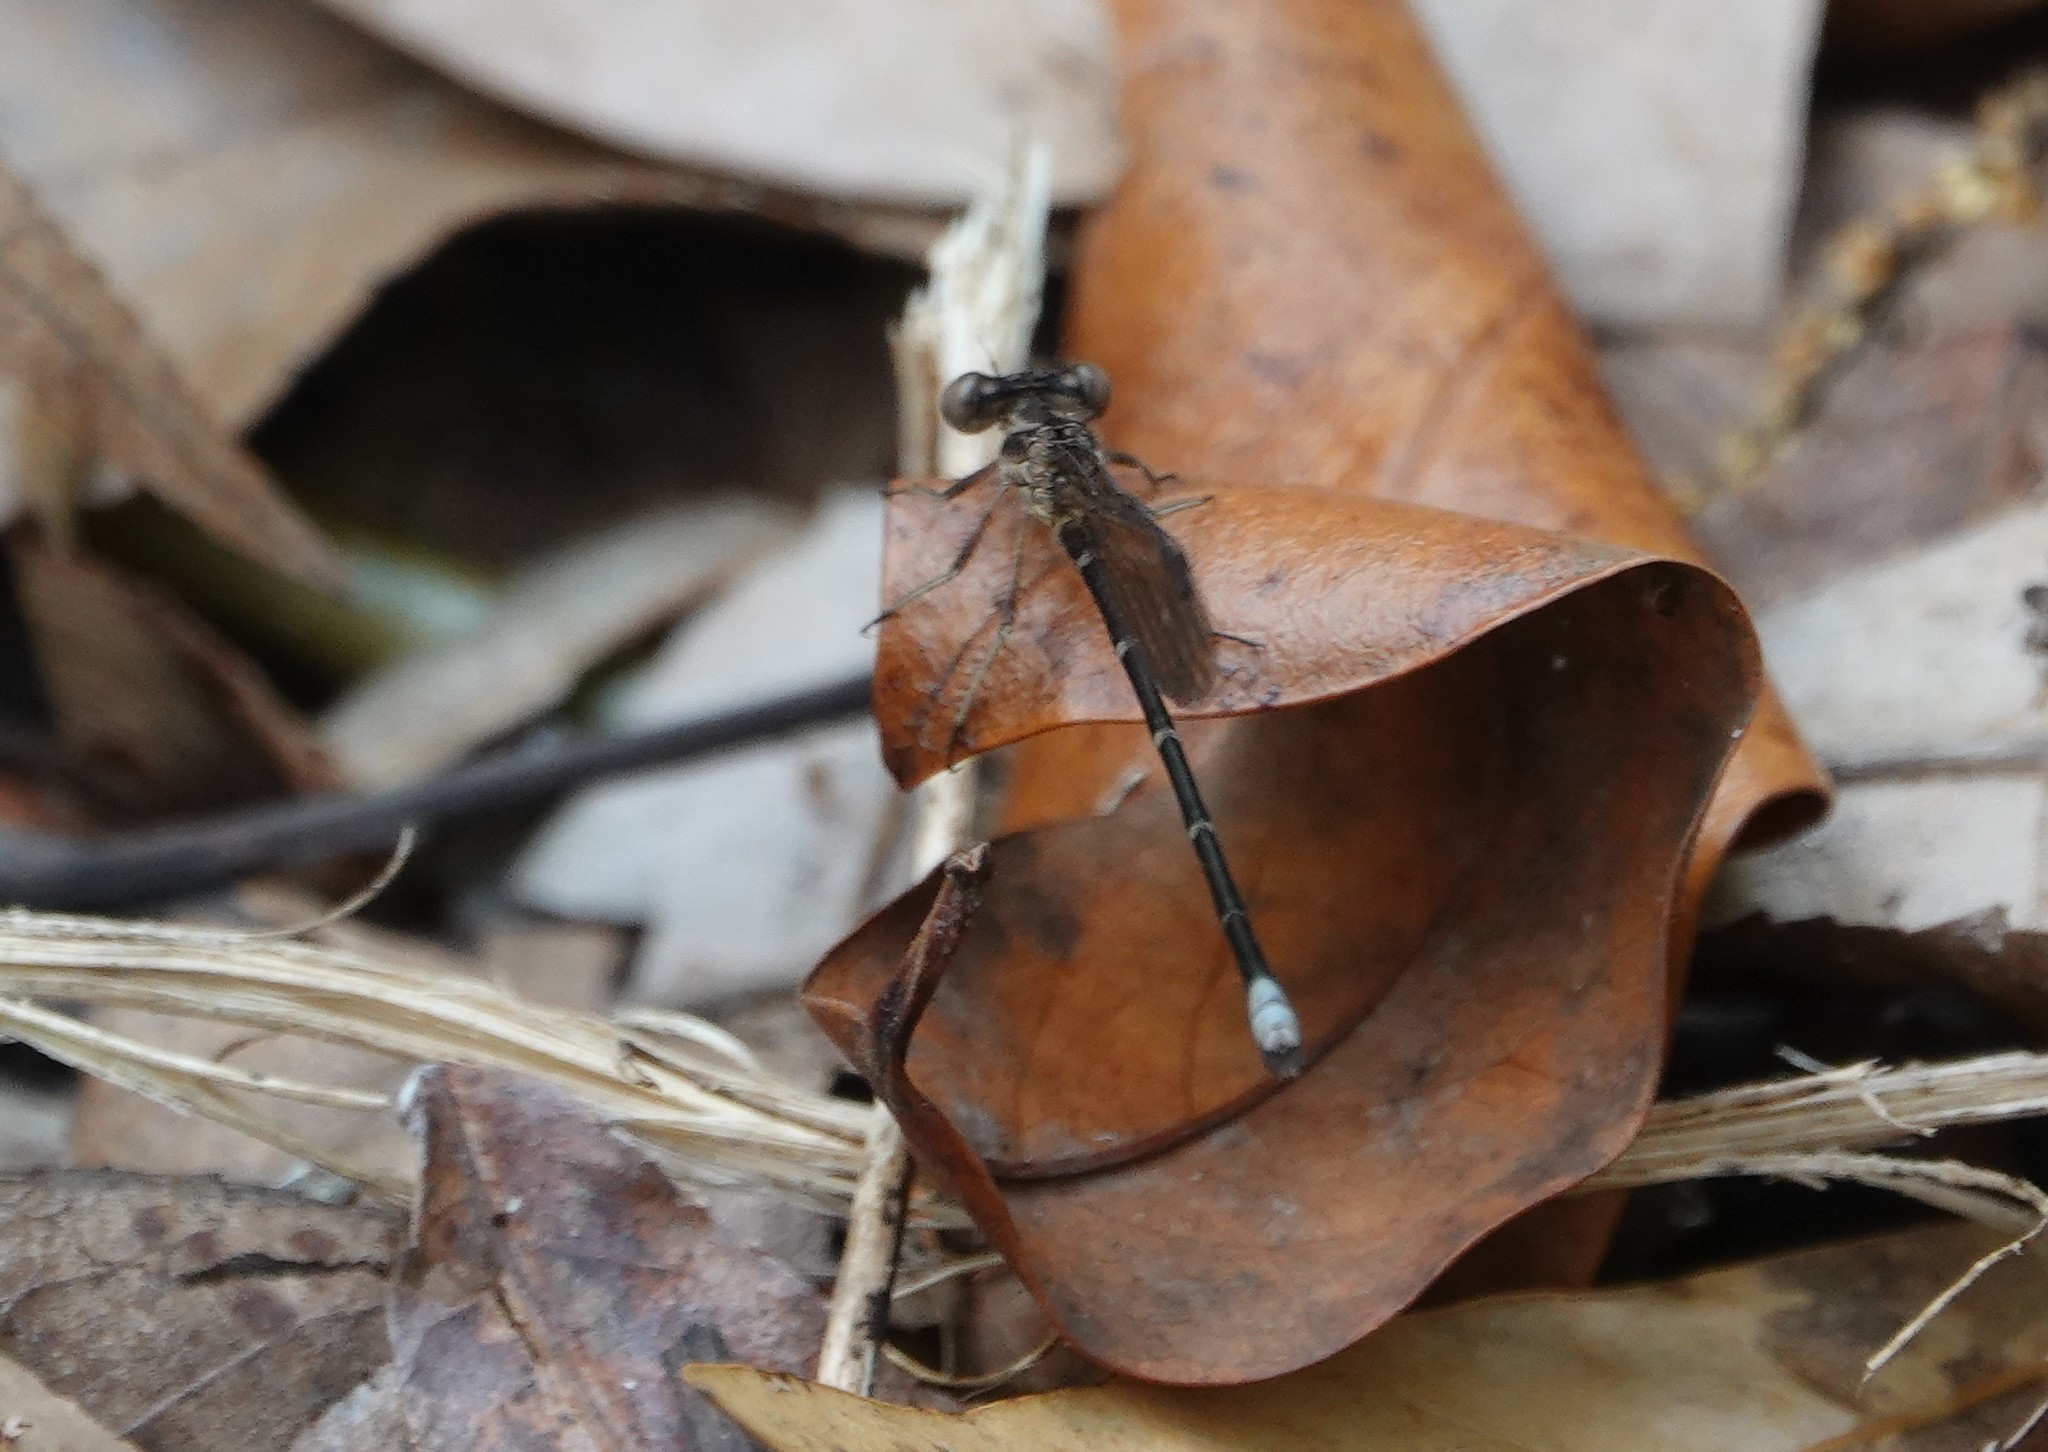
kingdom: Animalia
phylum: Arthropoda
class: Insecta
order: Odonata
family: Coenagrionidae
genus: Argia
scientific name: Argia sedula
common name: Blue-ringed dancer
